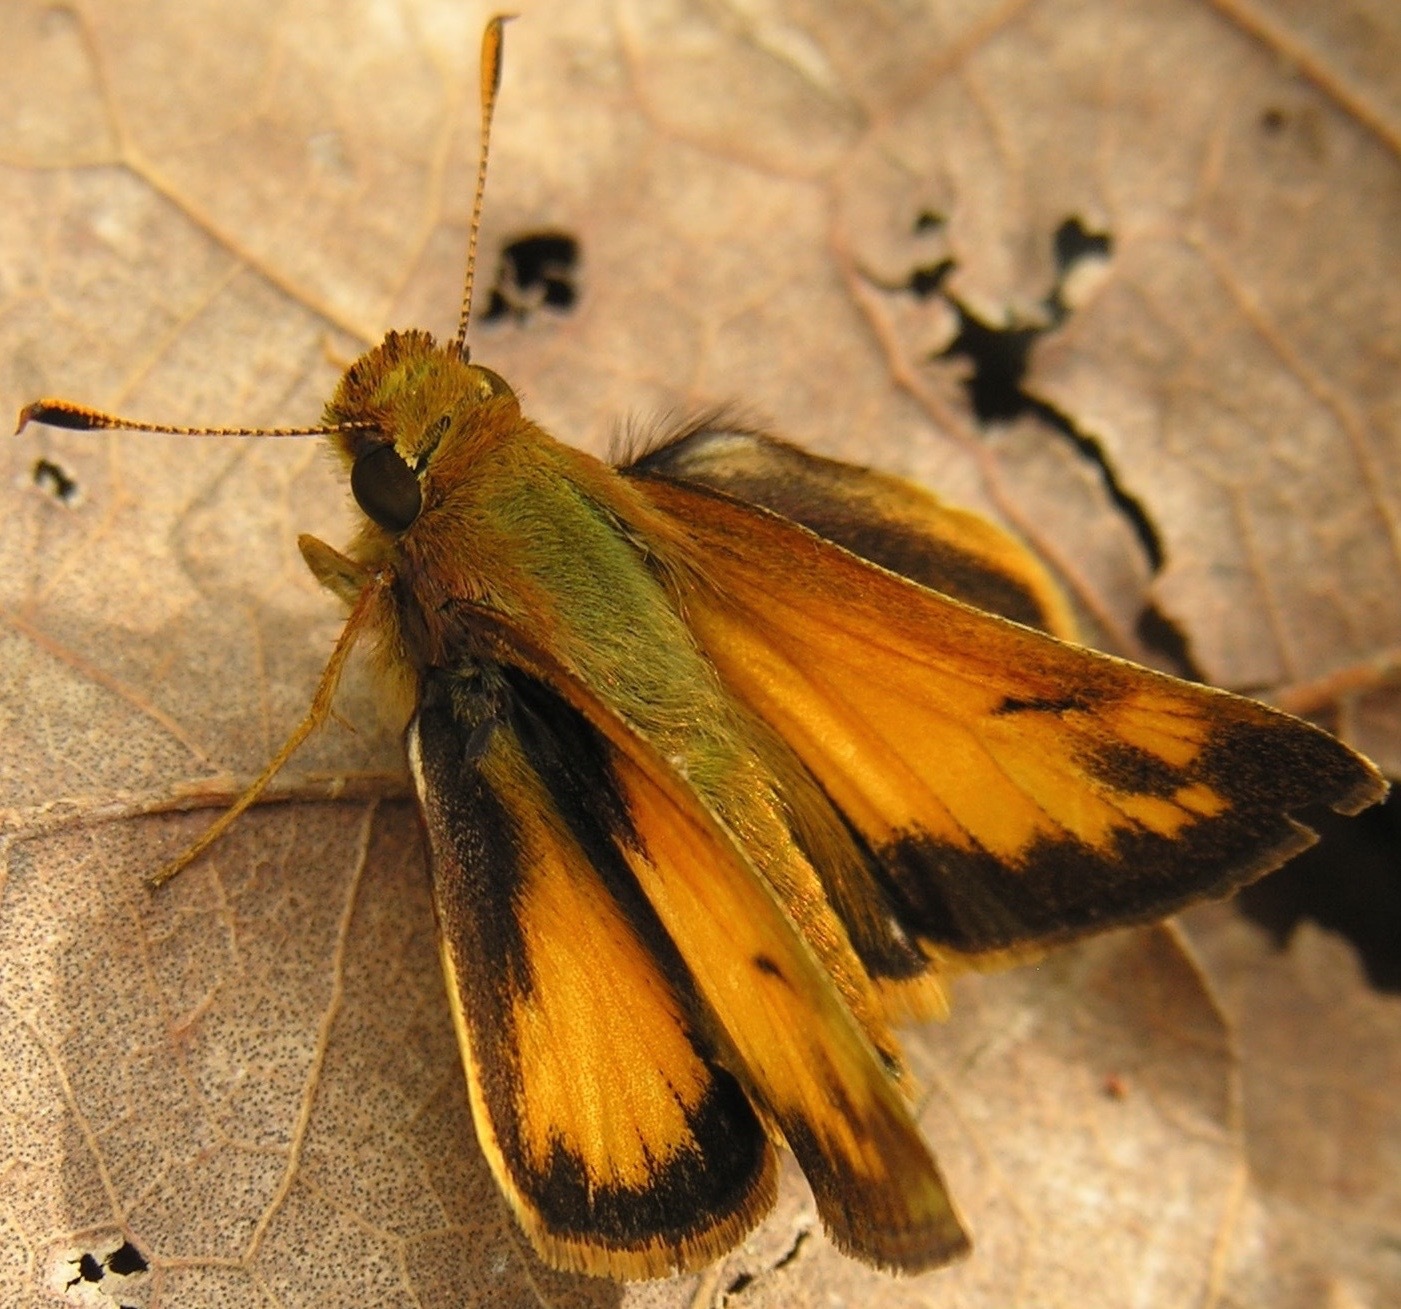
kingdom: Animalia
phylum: Arthropoda
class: Insecta
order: Lepidoptera
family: Hesperiidae
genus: Lon
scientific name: Lon zabulon
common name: Zabulon skipper
